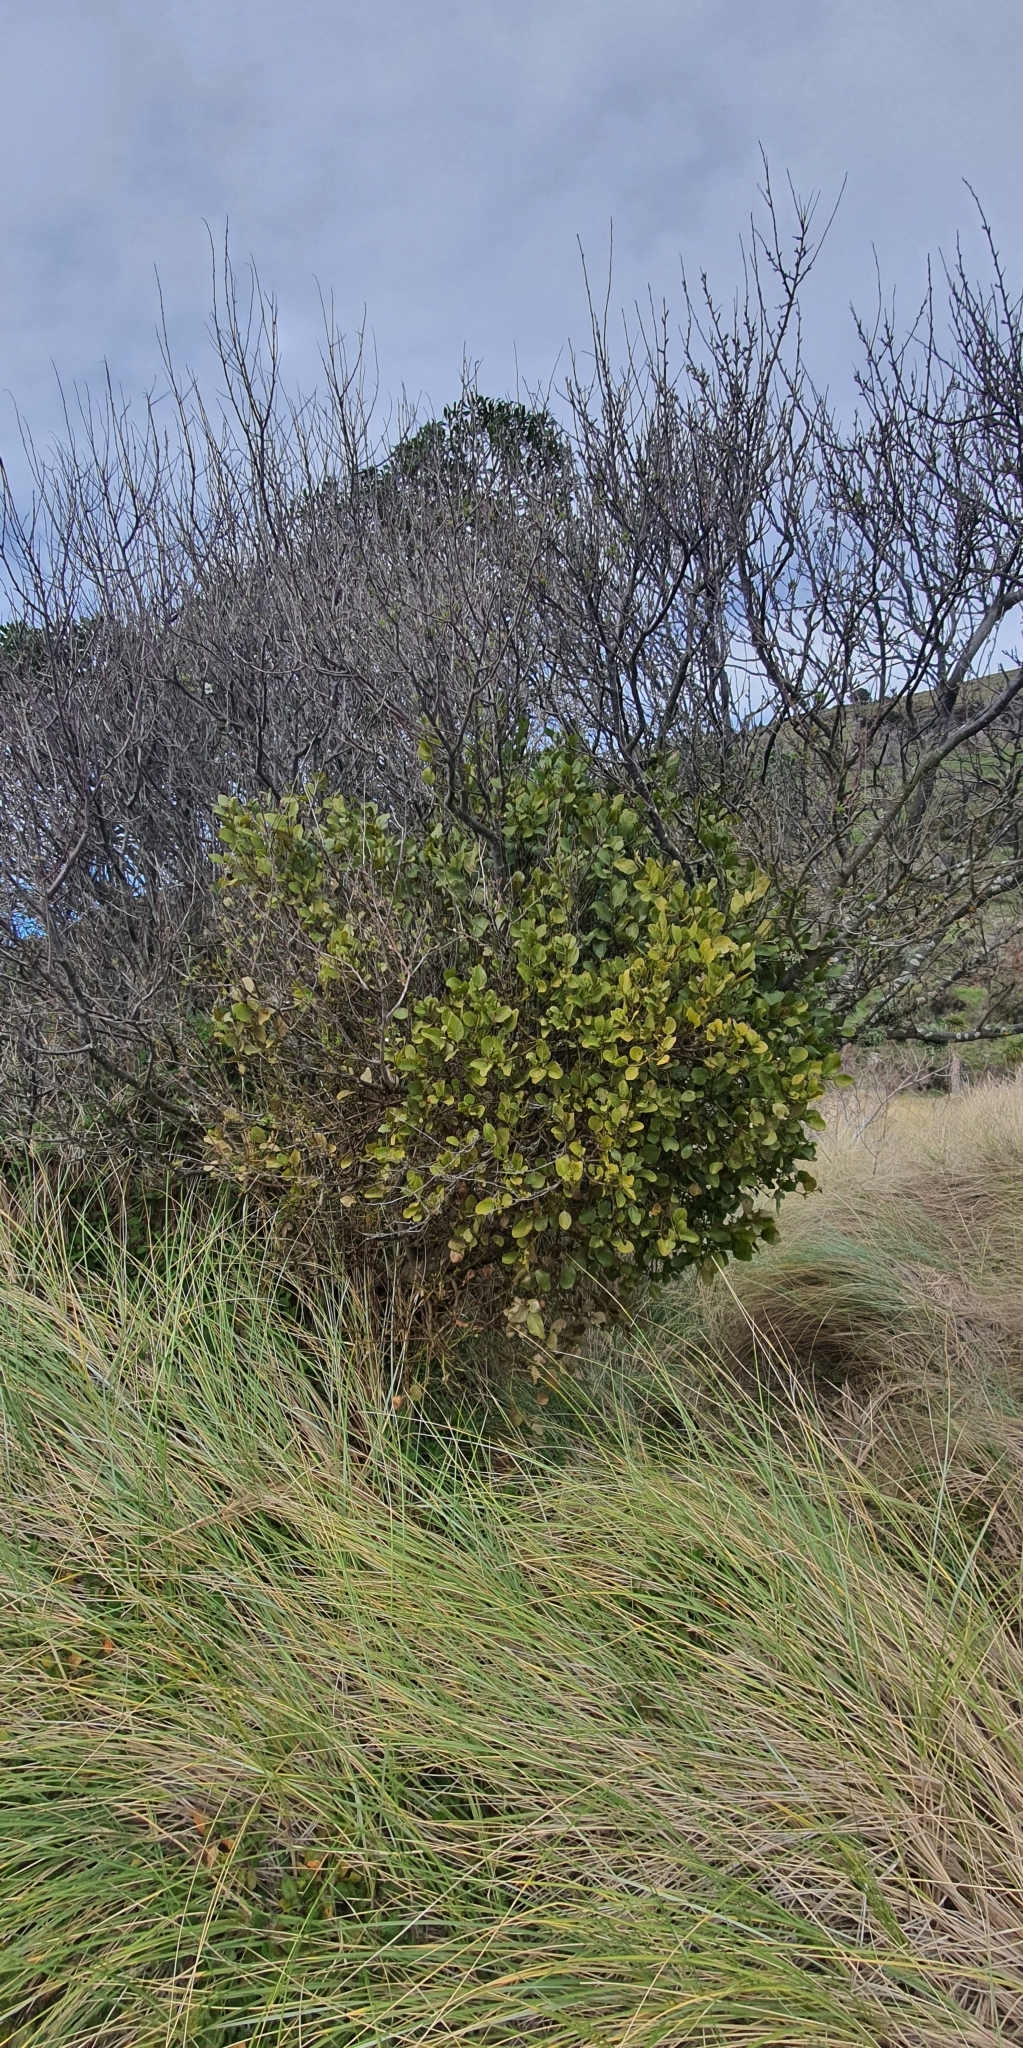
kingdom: Plantae
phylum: Tracheophyta
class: Magnoliopsida
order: Santalales
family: Loranthaceae
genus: Ileostylus
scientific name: Ileostylus micranthus
